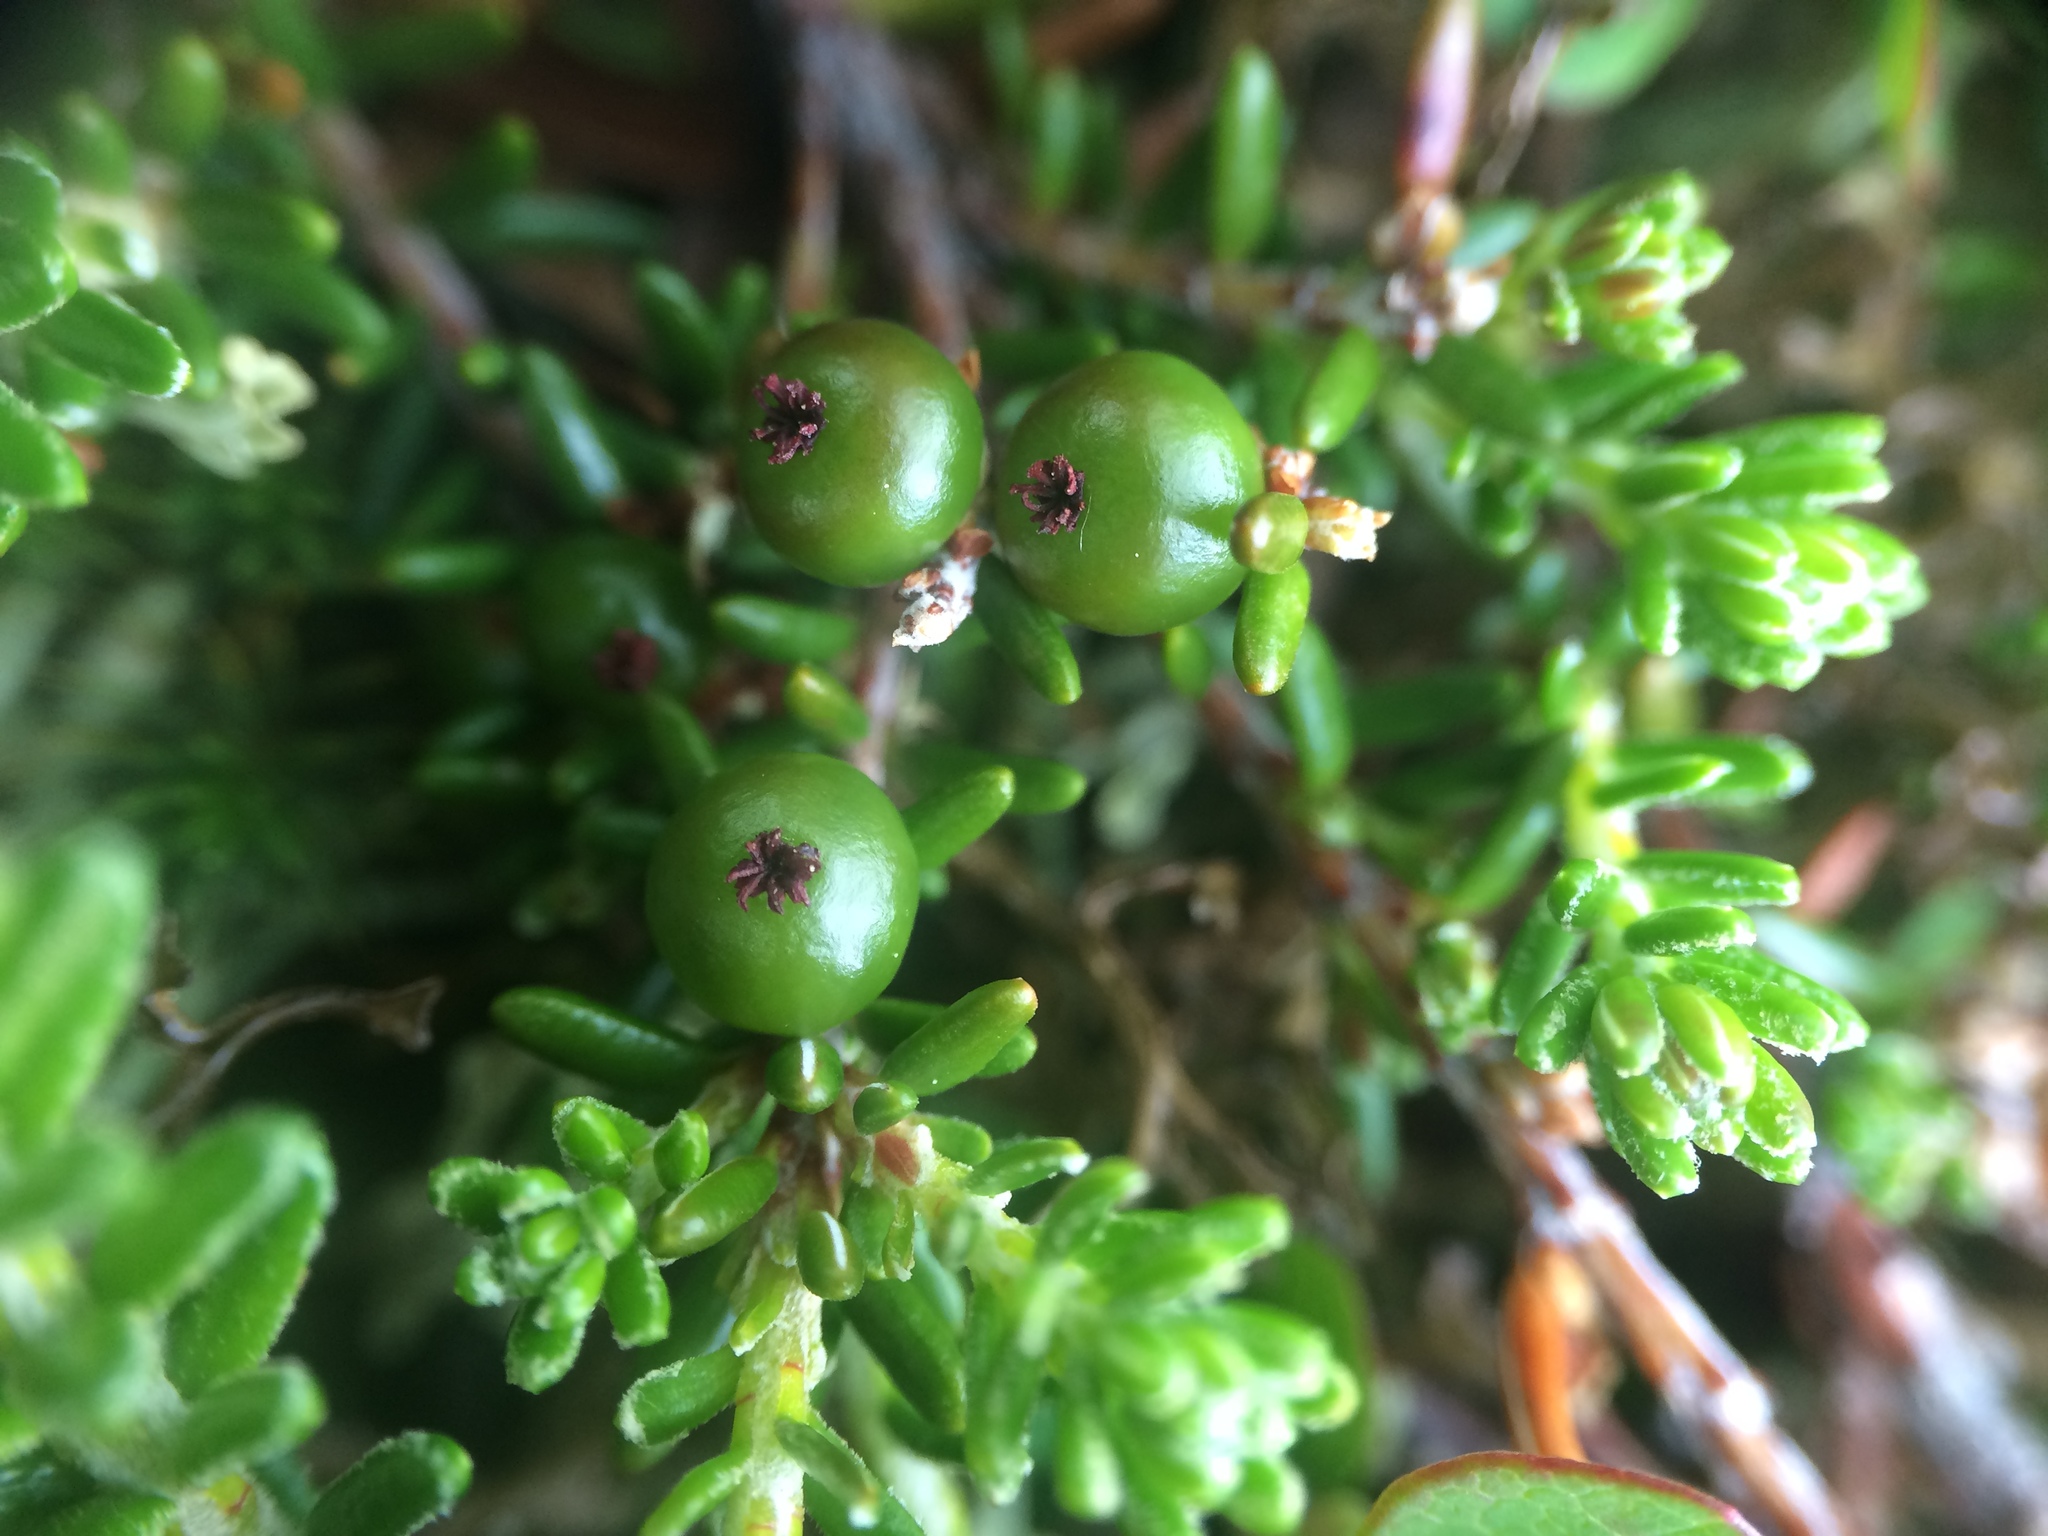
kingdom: Plantae
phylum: Tracheophyta
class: Magnoliopsida
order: Ericales
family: Ericaceae
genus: Empetrum
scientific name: Empetrum atropurpureum
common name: Purple crowberry
